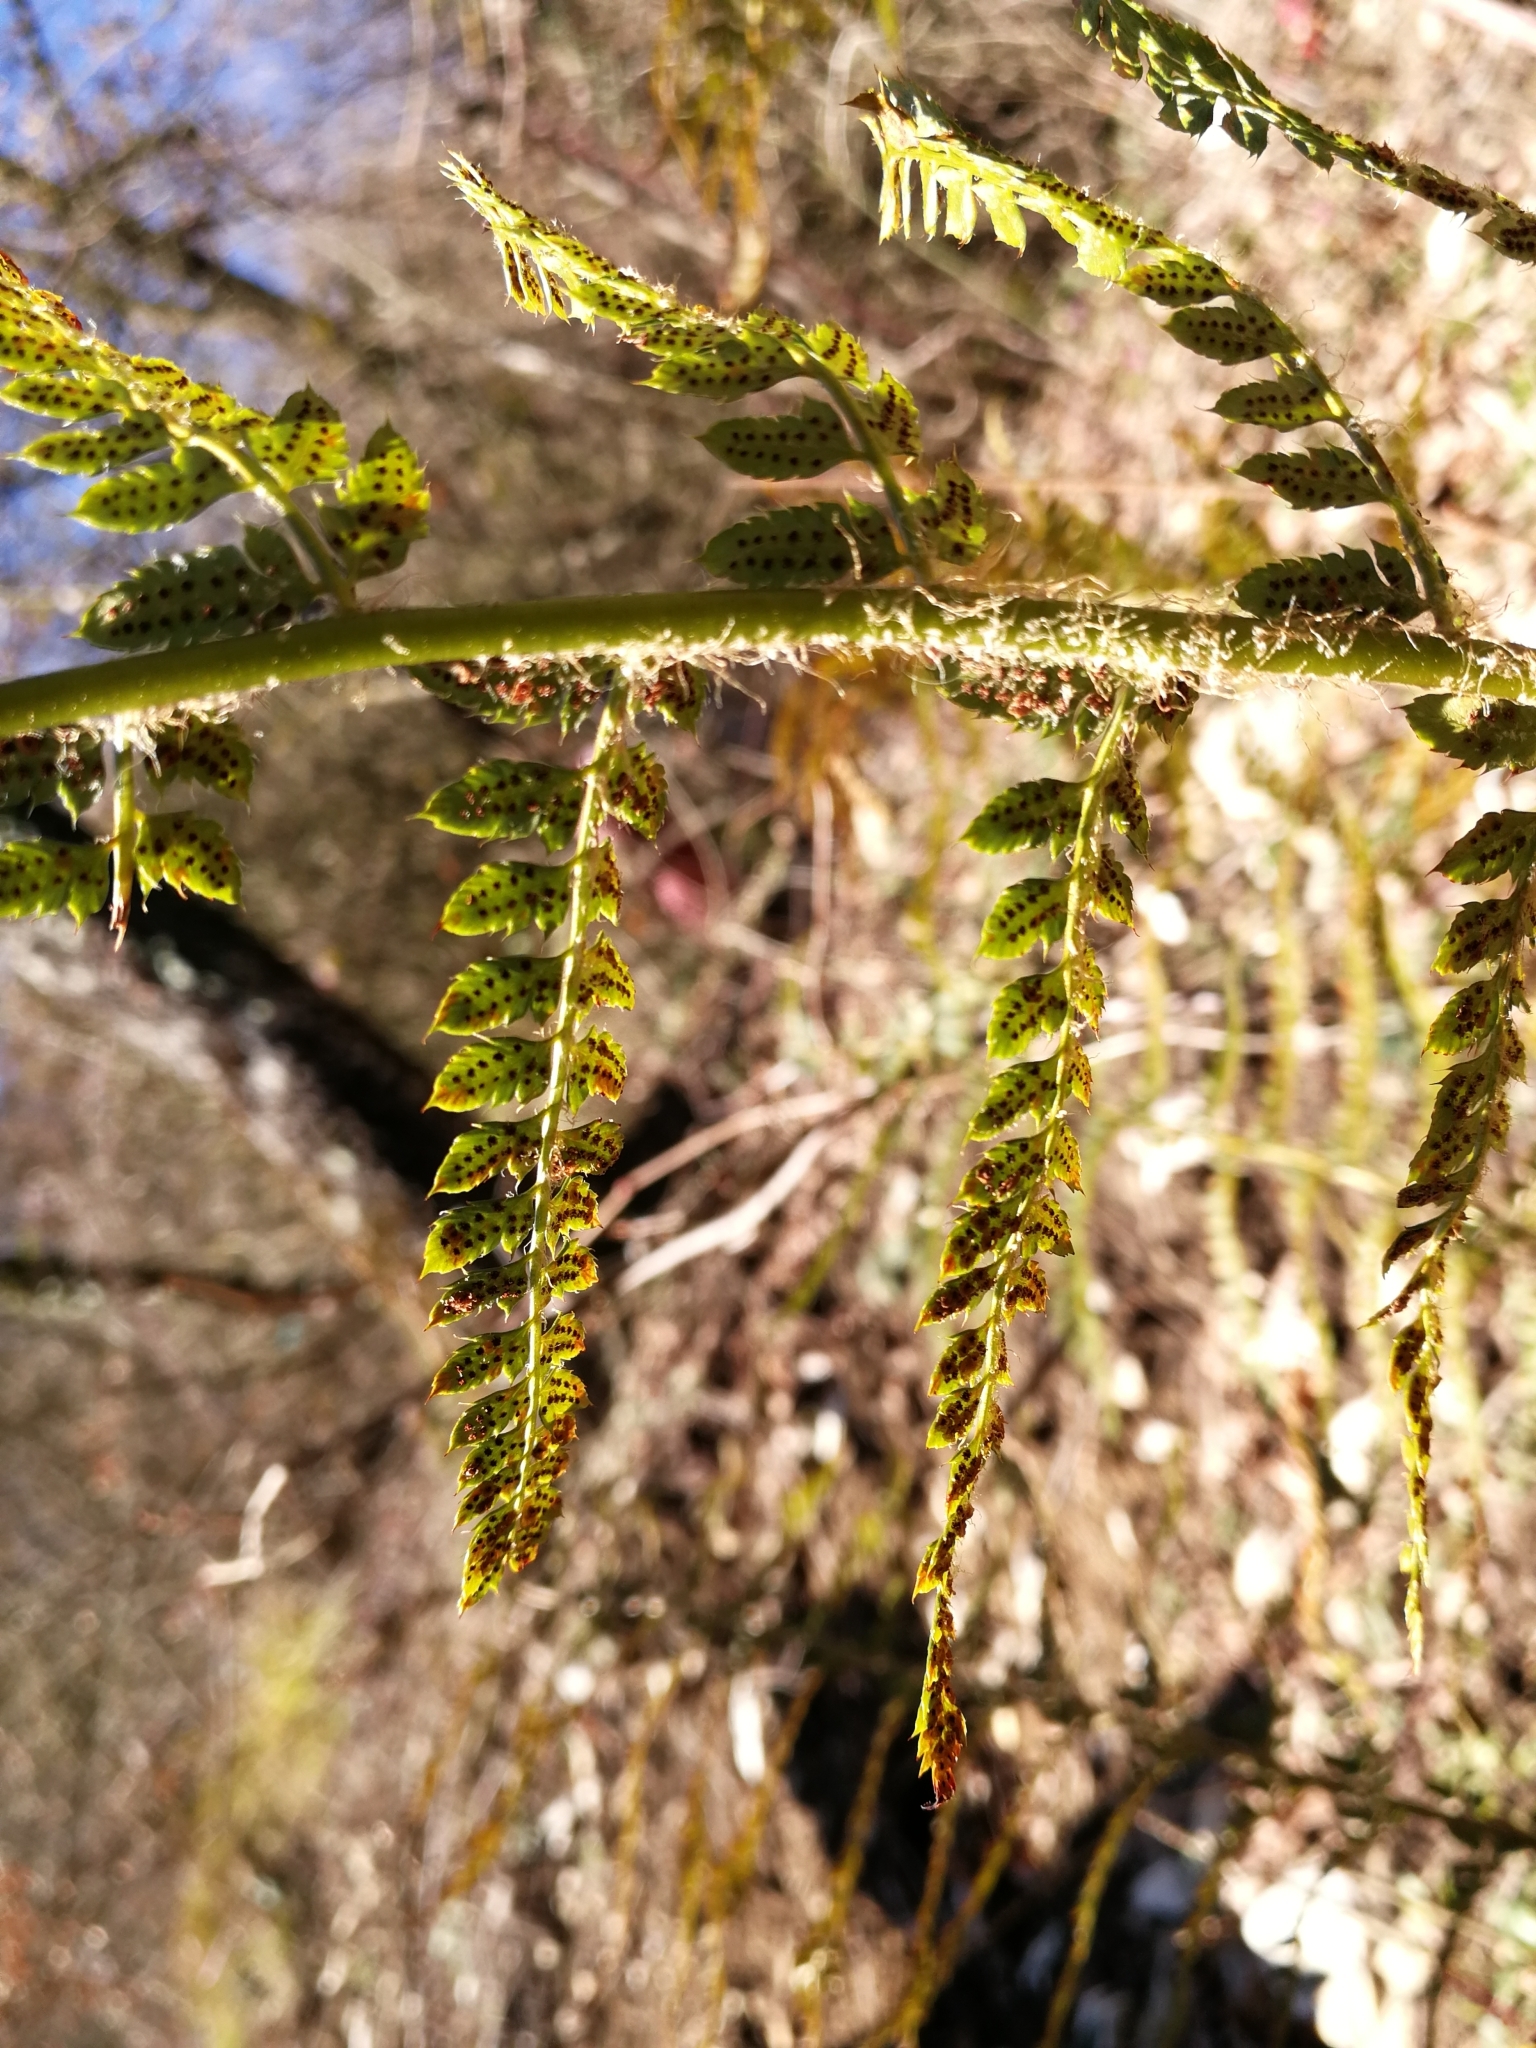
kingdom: Plantae
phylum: Tracheophyta
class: Polypodiopsida
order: Polypodiales
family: Dryopteridaceae
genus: Polystichum
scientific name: Polystichum setiferum
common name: Soft shield-fern
